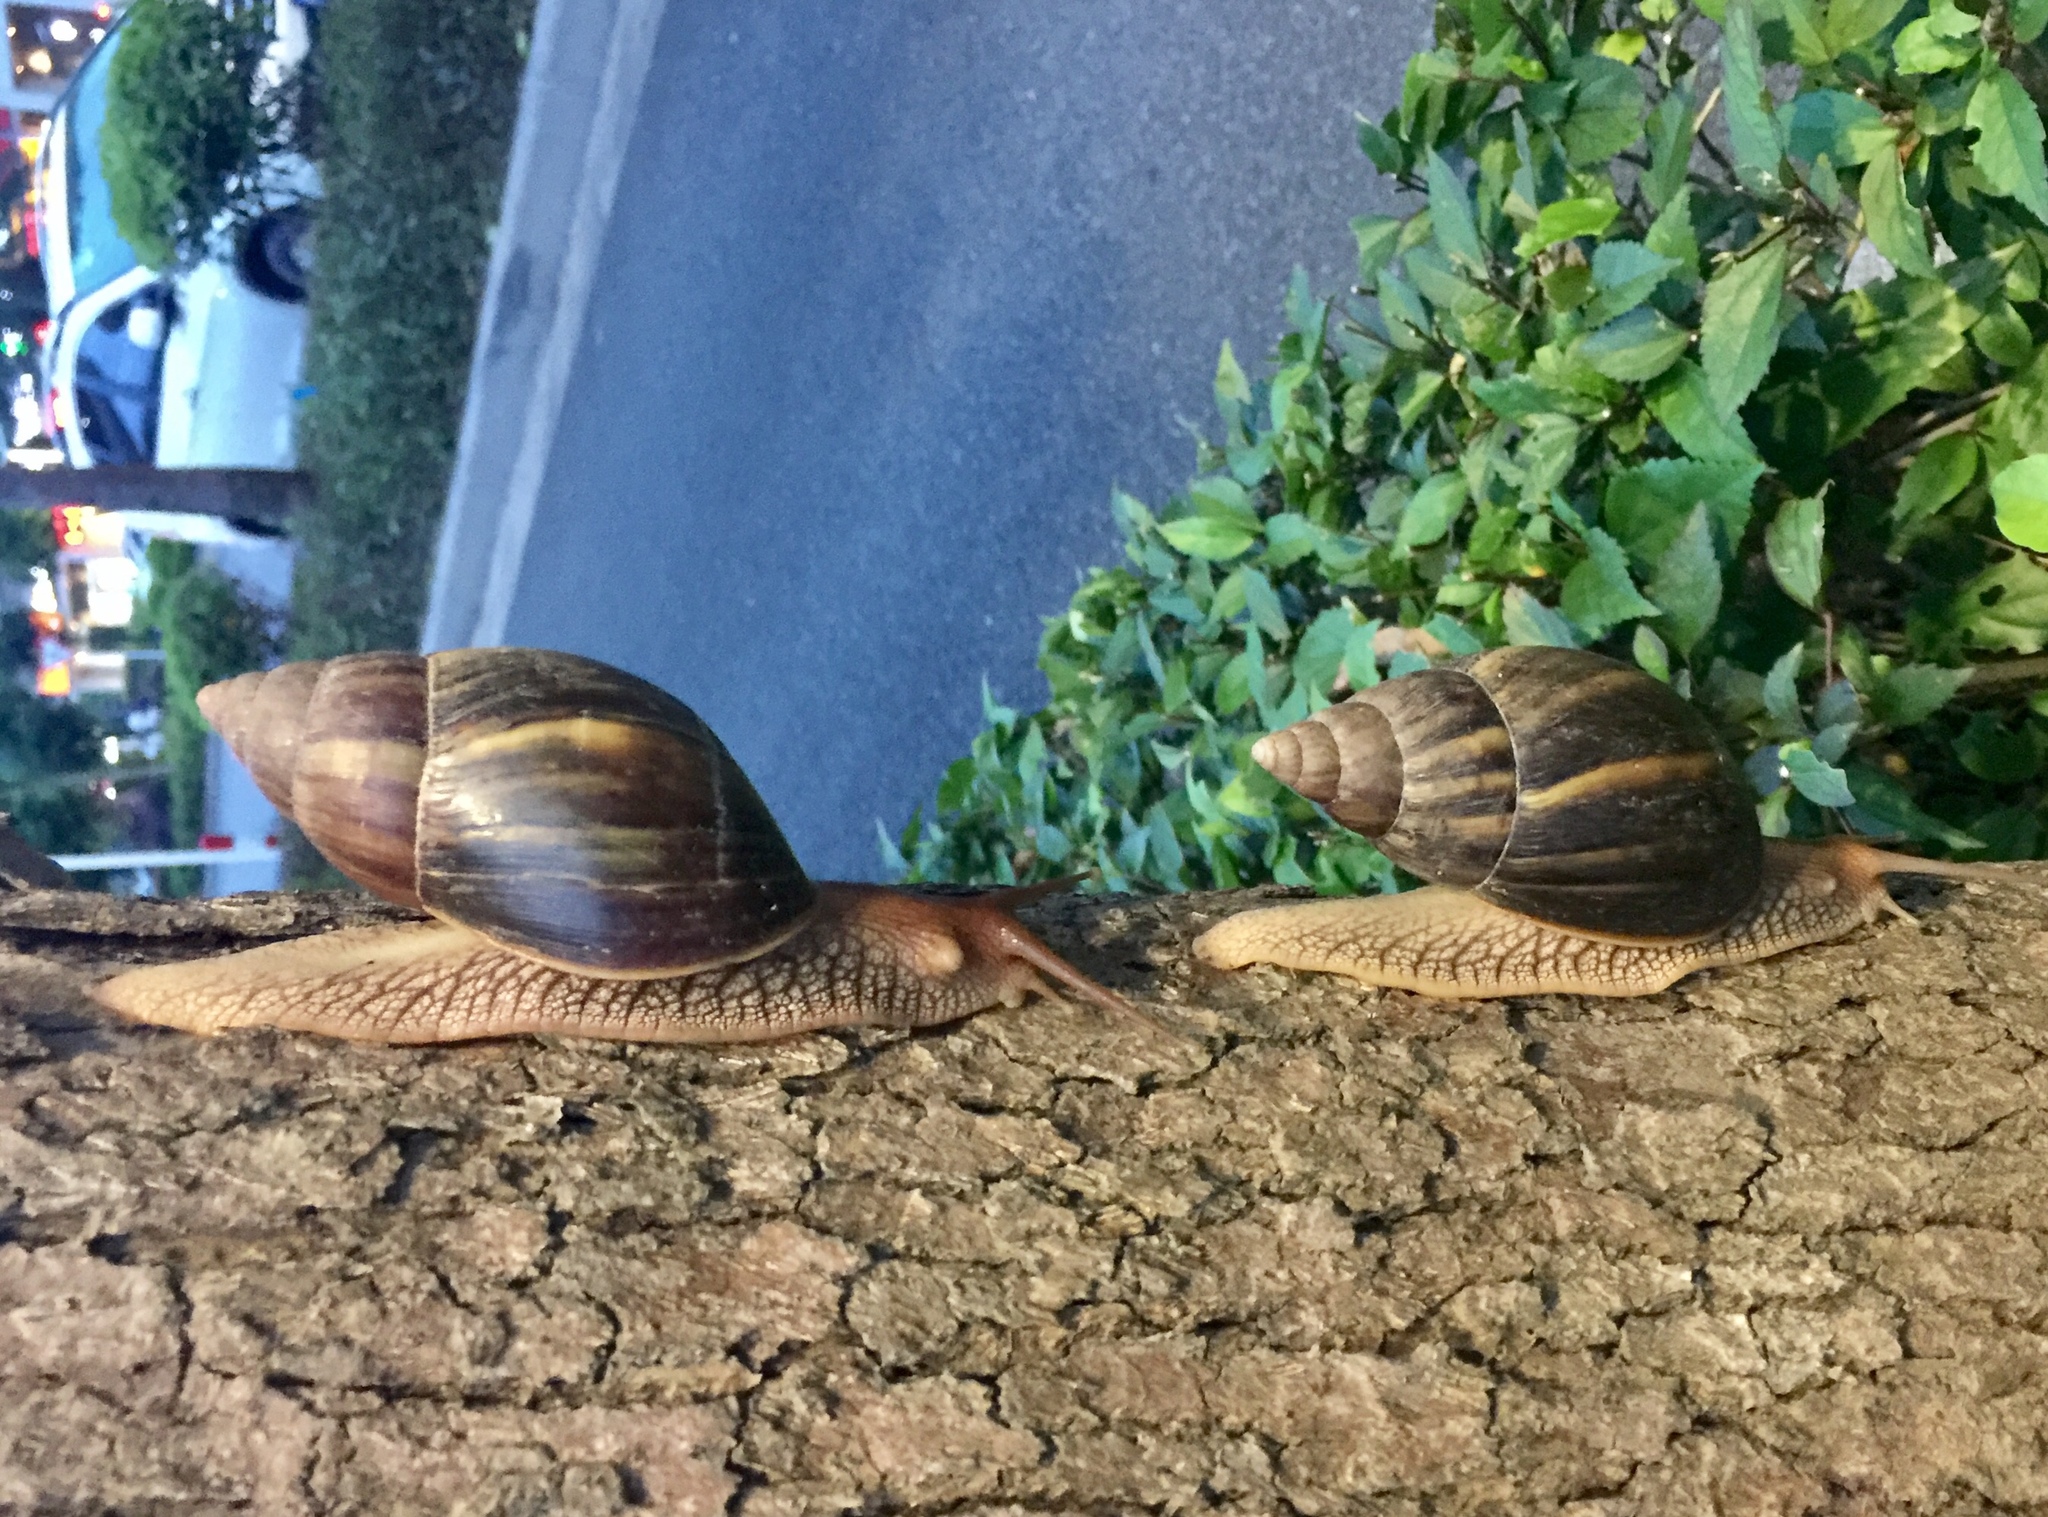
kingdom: Animalia
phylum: Mollusca
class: Gastropoda
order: Stylommatophora
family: Achatinidae
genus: Lissachatina
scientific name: Lissachatina immaculata
